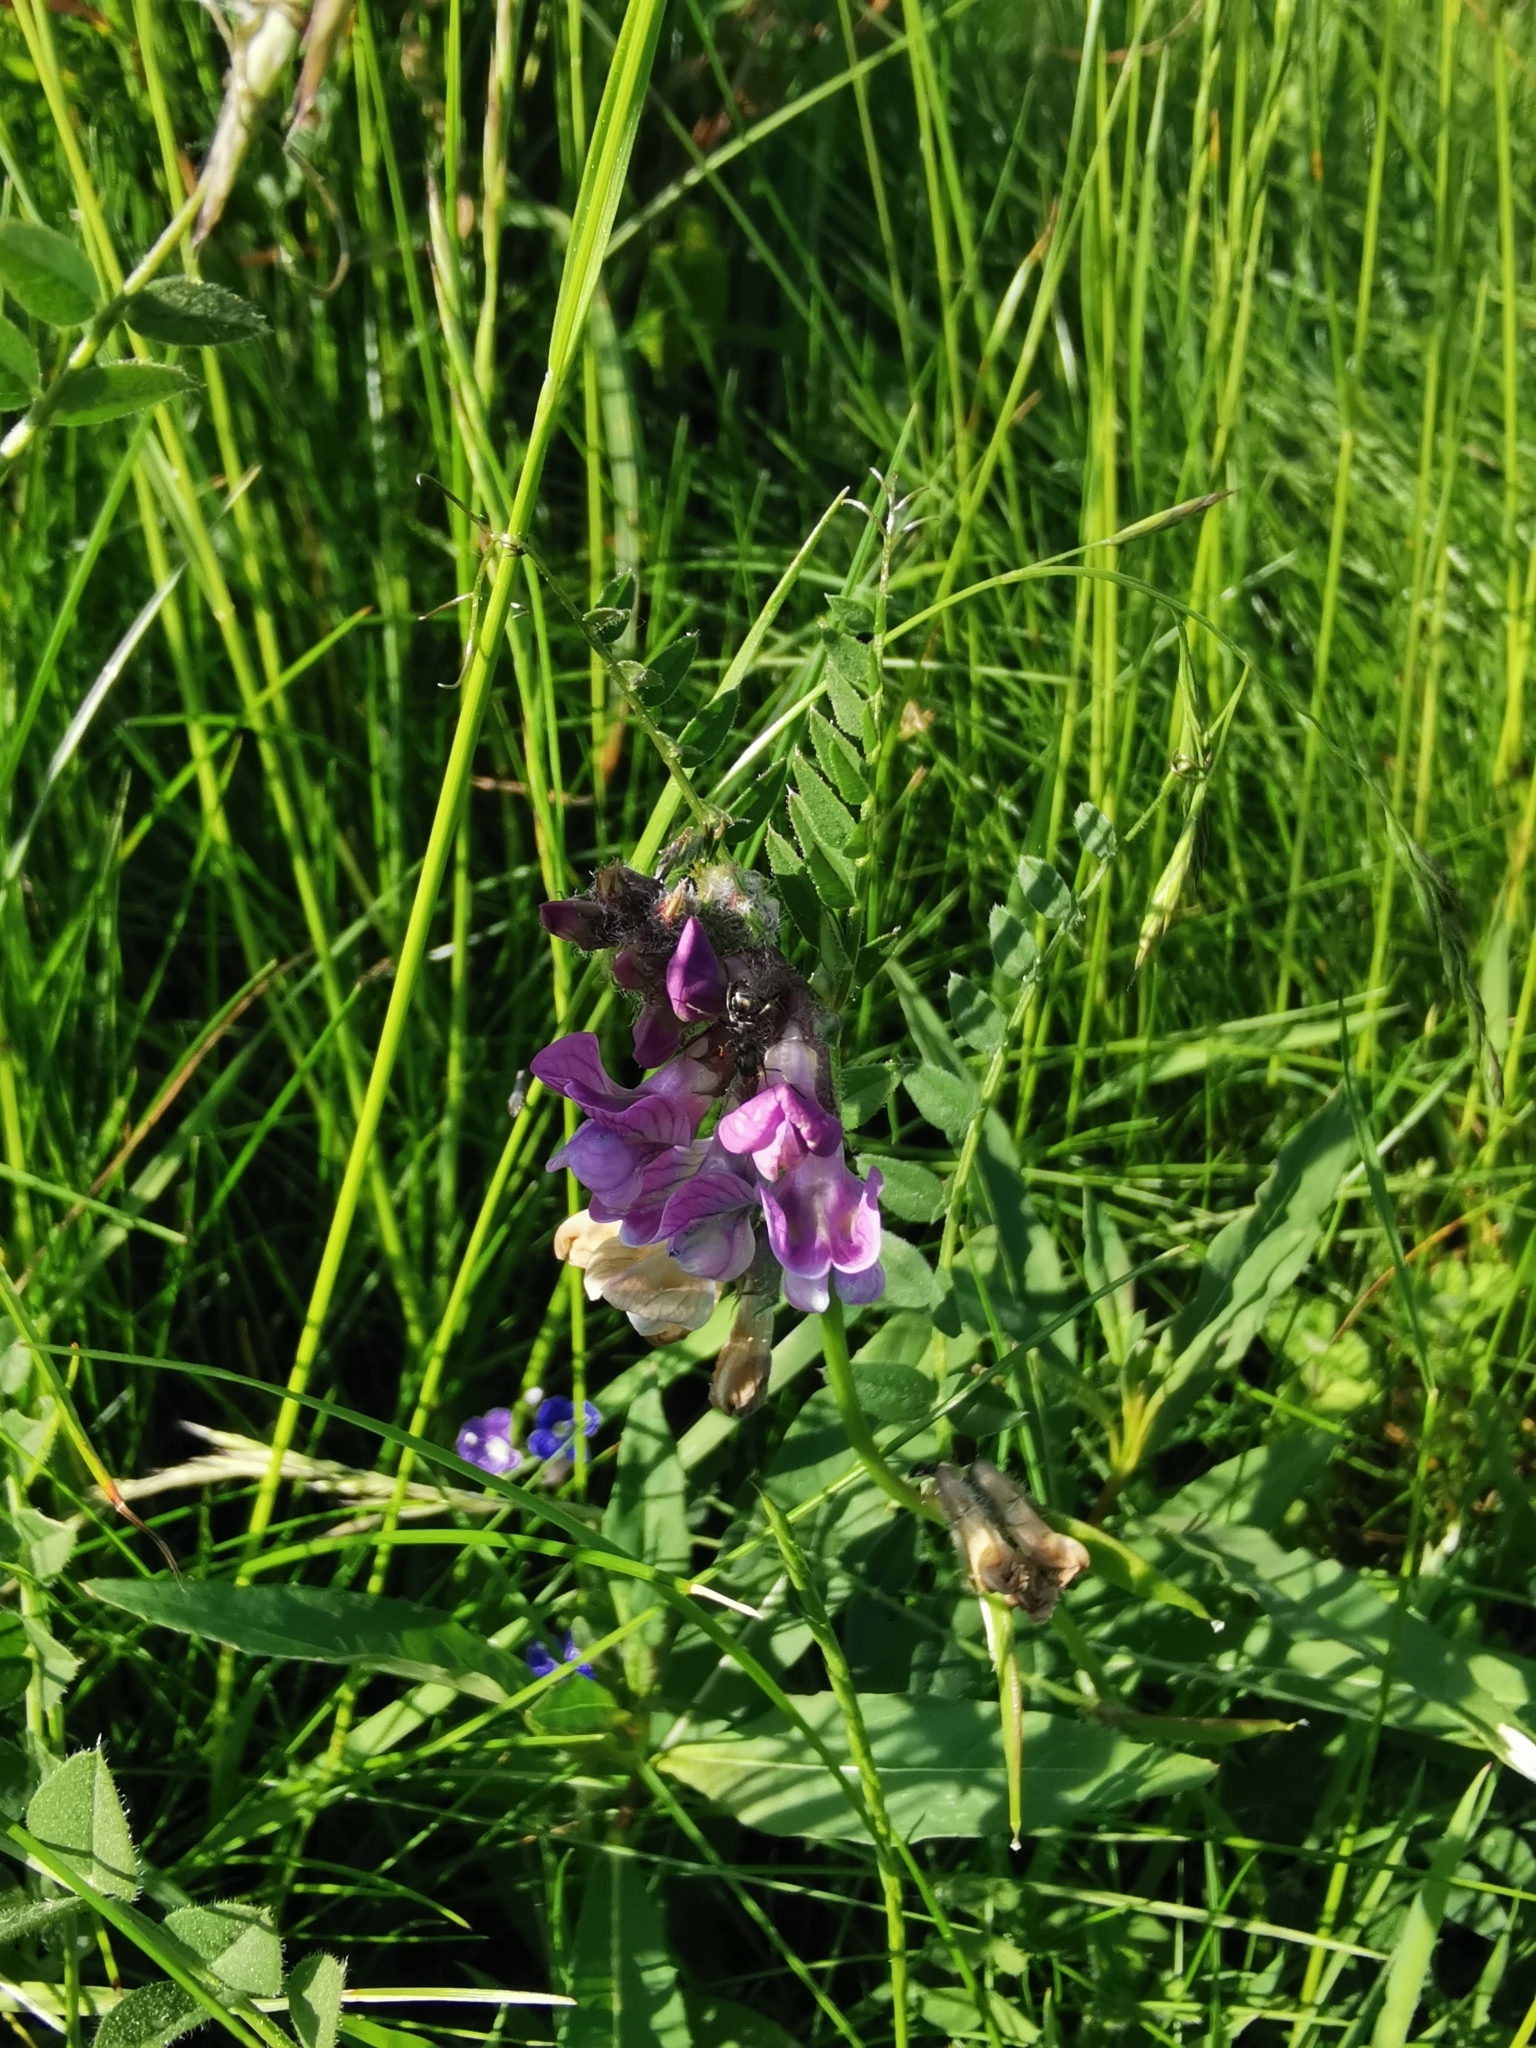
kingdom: Plantae
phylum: Tracheophyta
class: Magnoliopsida
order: Fabales
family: Fabaceae
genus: Vicia
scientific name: Vicia sepium
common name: Bush vetch
